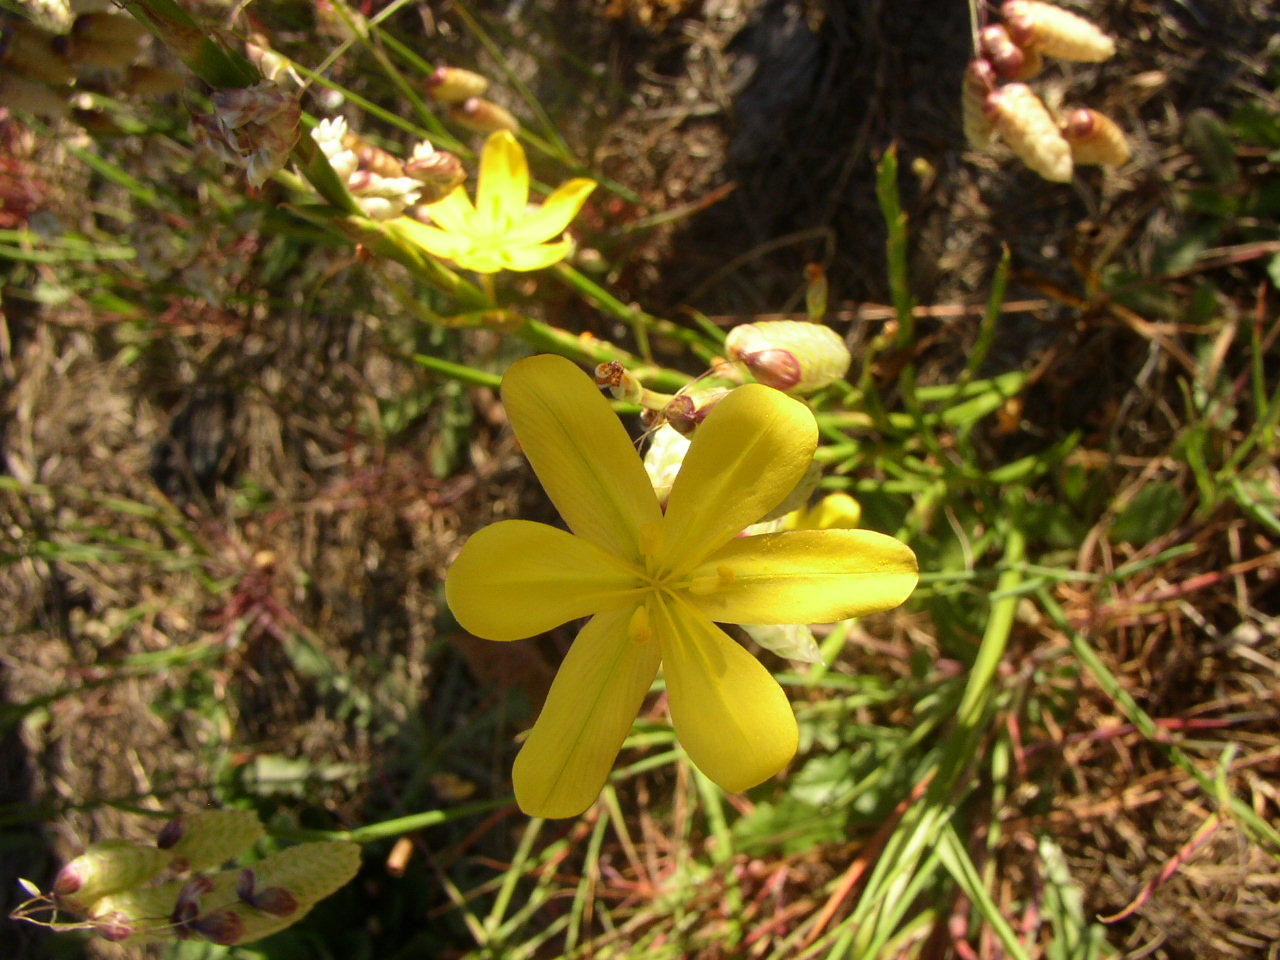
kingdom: Plantae
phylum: Tracheophyta
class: Liliopsida
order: Asparagales
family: Iridaceae
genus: Moraea
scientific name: Moraea lewisiae
